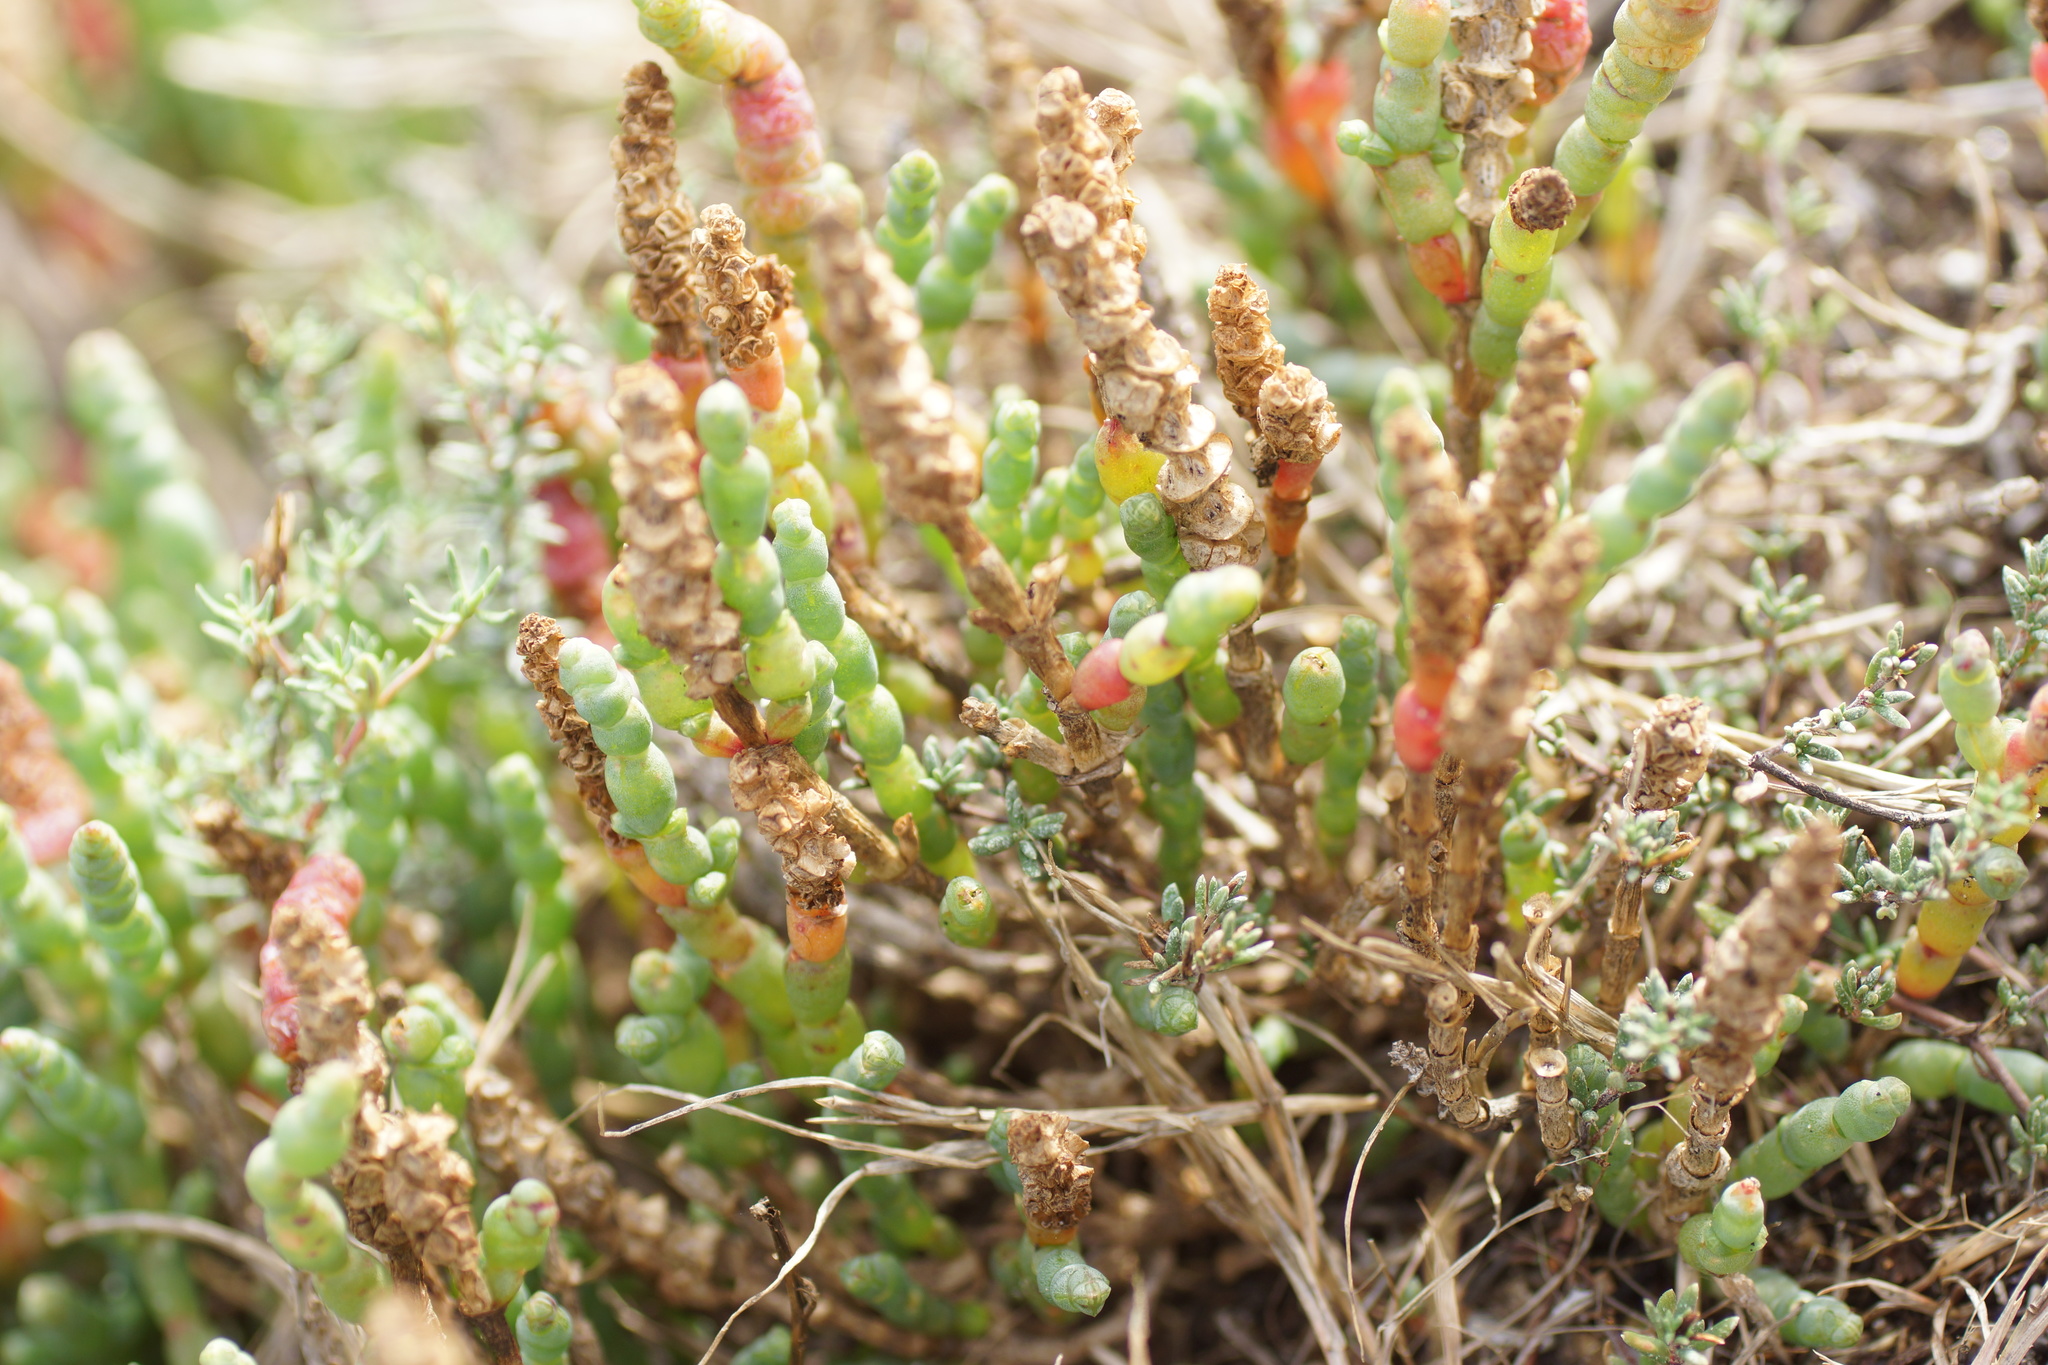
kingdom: Plantae
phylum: Tracheophyta
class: Magnoliopsida
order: Caryophyllales
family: Amaranthaceae
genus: Salicornia
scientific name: Salicornia blackiana
